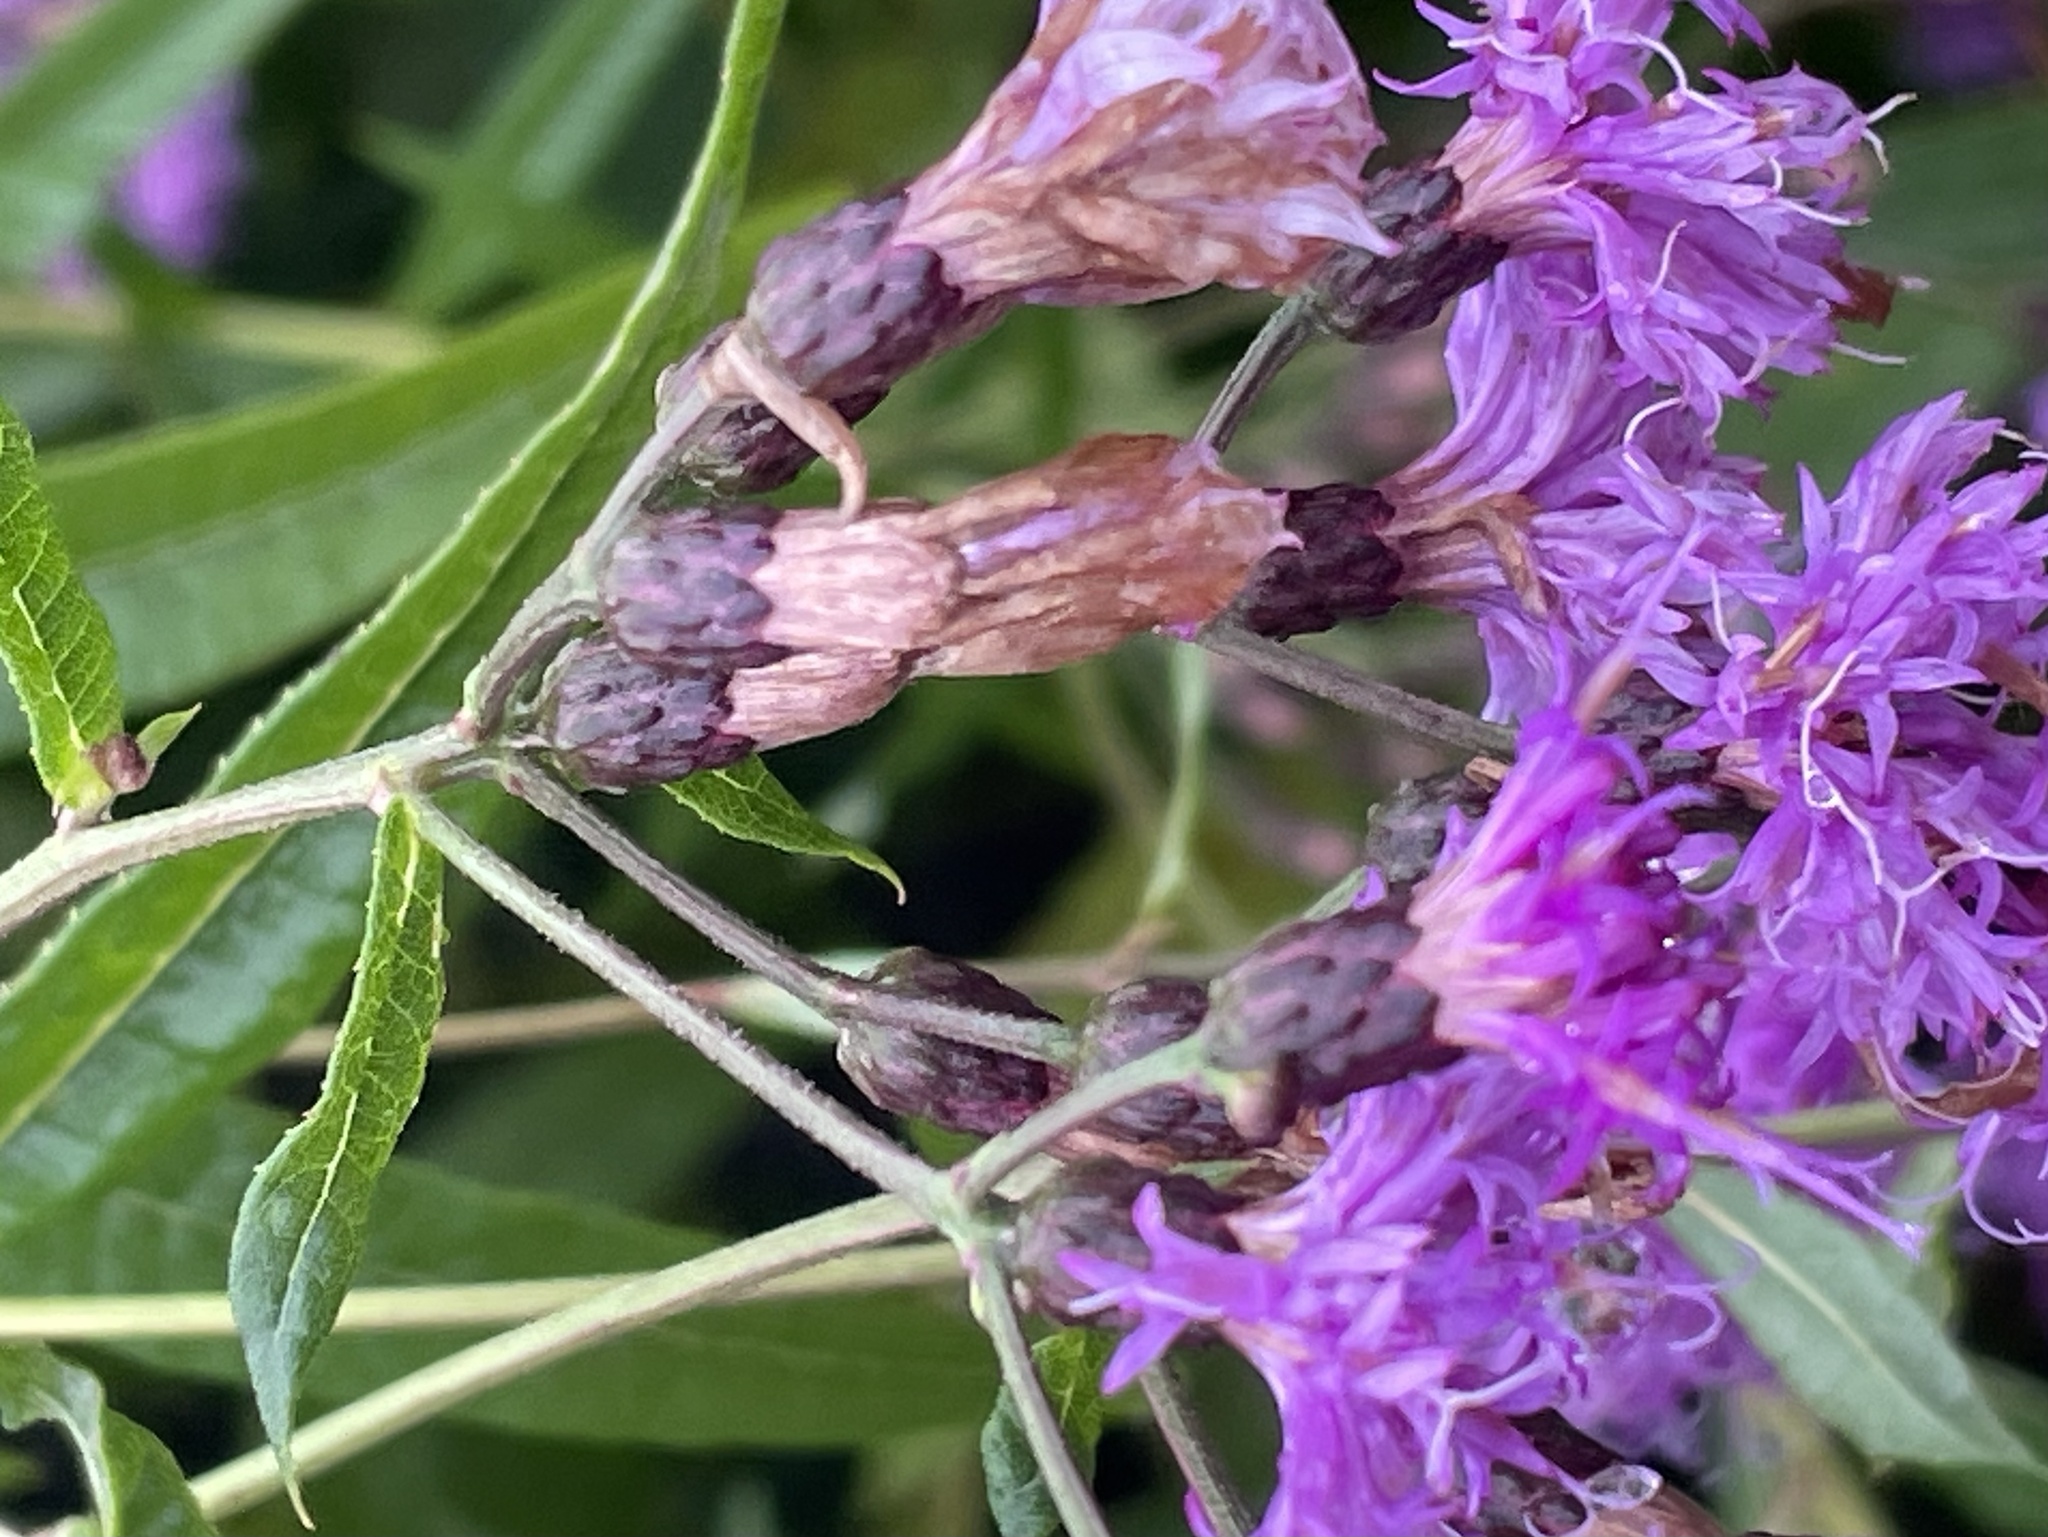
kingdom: Plantae
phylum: Tracheophyta
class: Magnoliopsida
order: Asterales
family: Asteraceae
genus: Vernonia
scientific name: Vernonia gigantea
